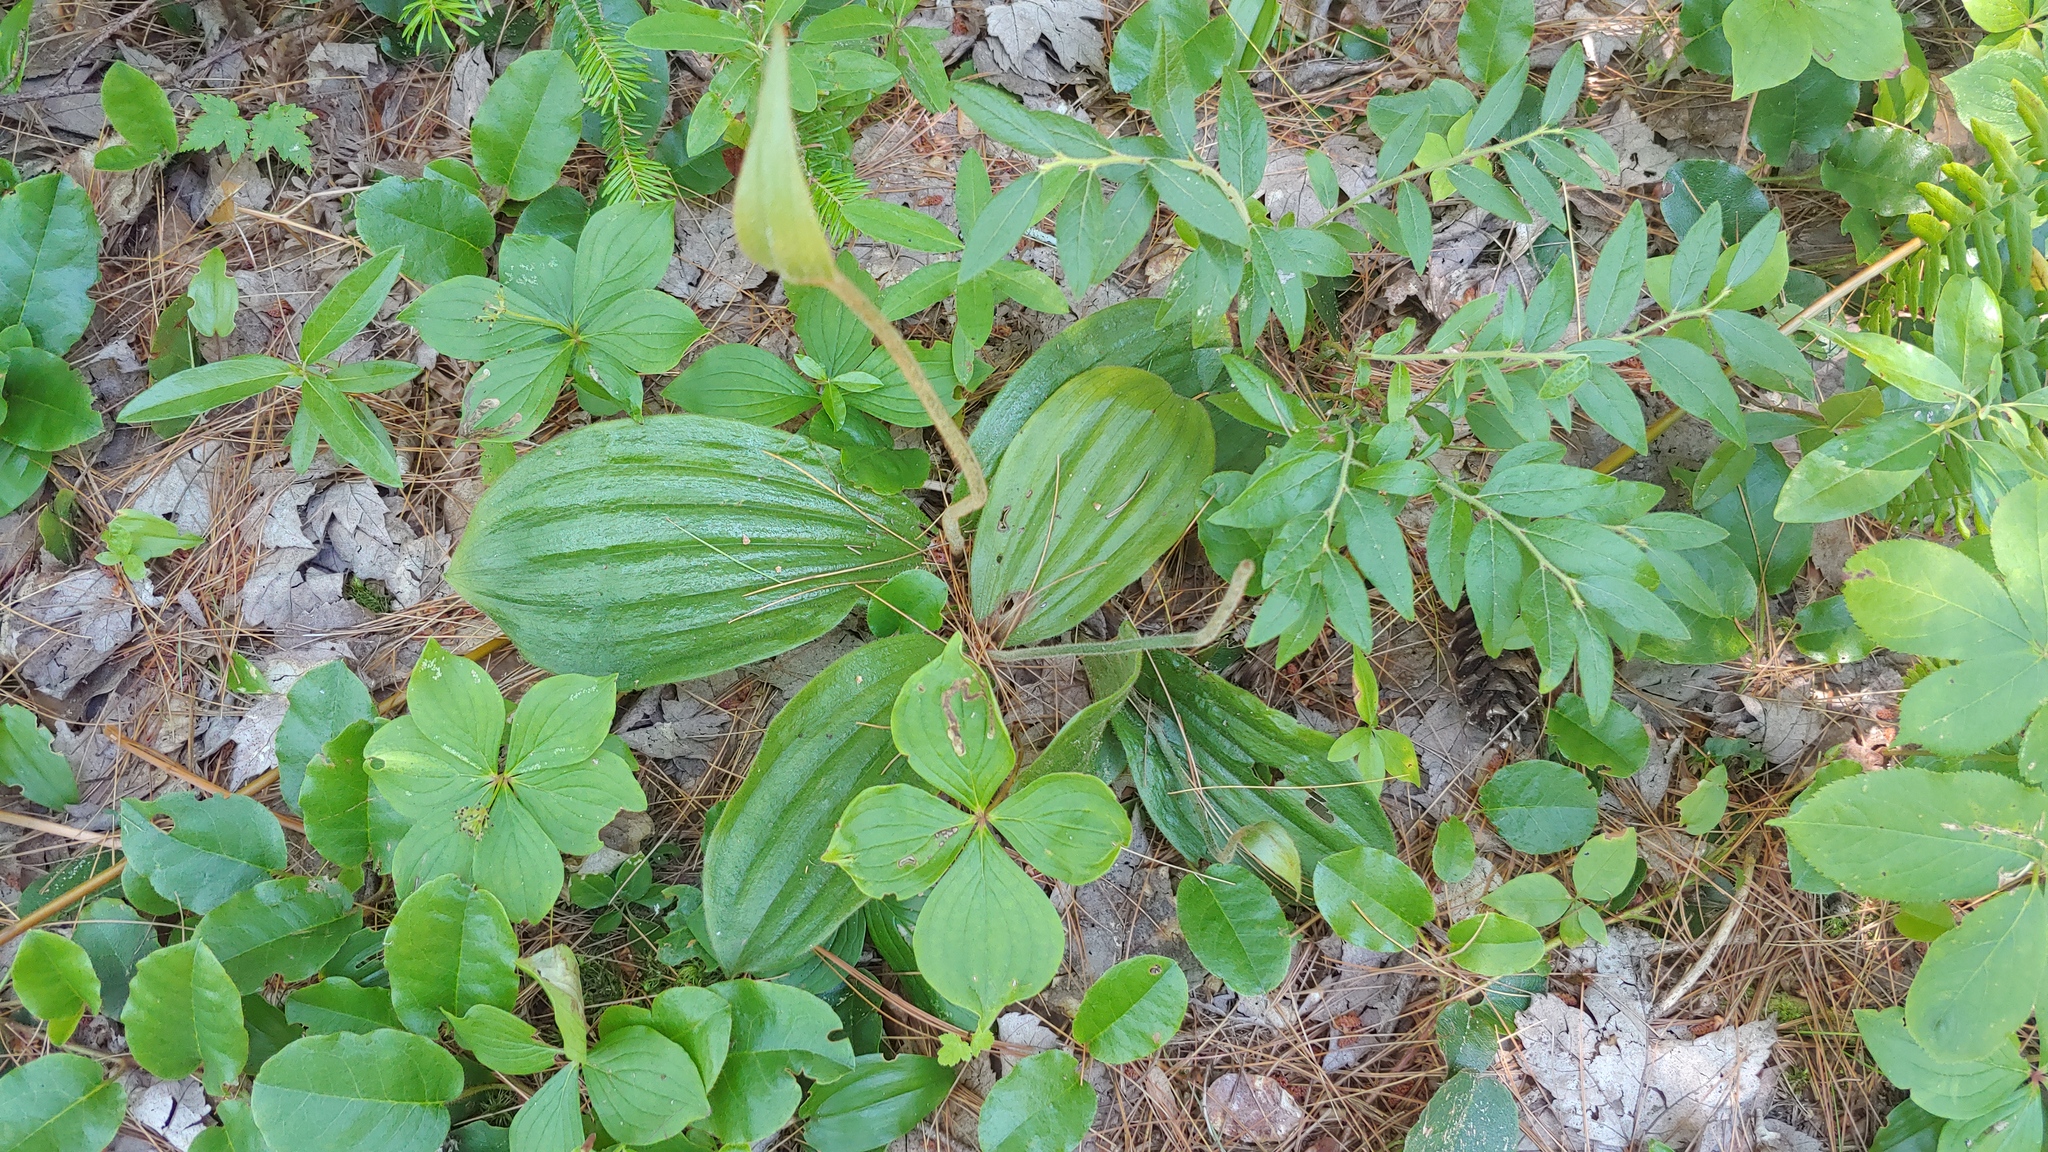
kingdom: Plantae
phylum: Tracheophyta
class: Liliopsida
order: Asparagales
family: Orchidaceae
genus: Cypripedium
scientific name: Cypripedium acaule
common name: Pink lady's-slipper
